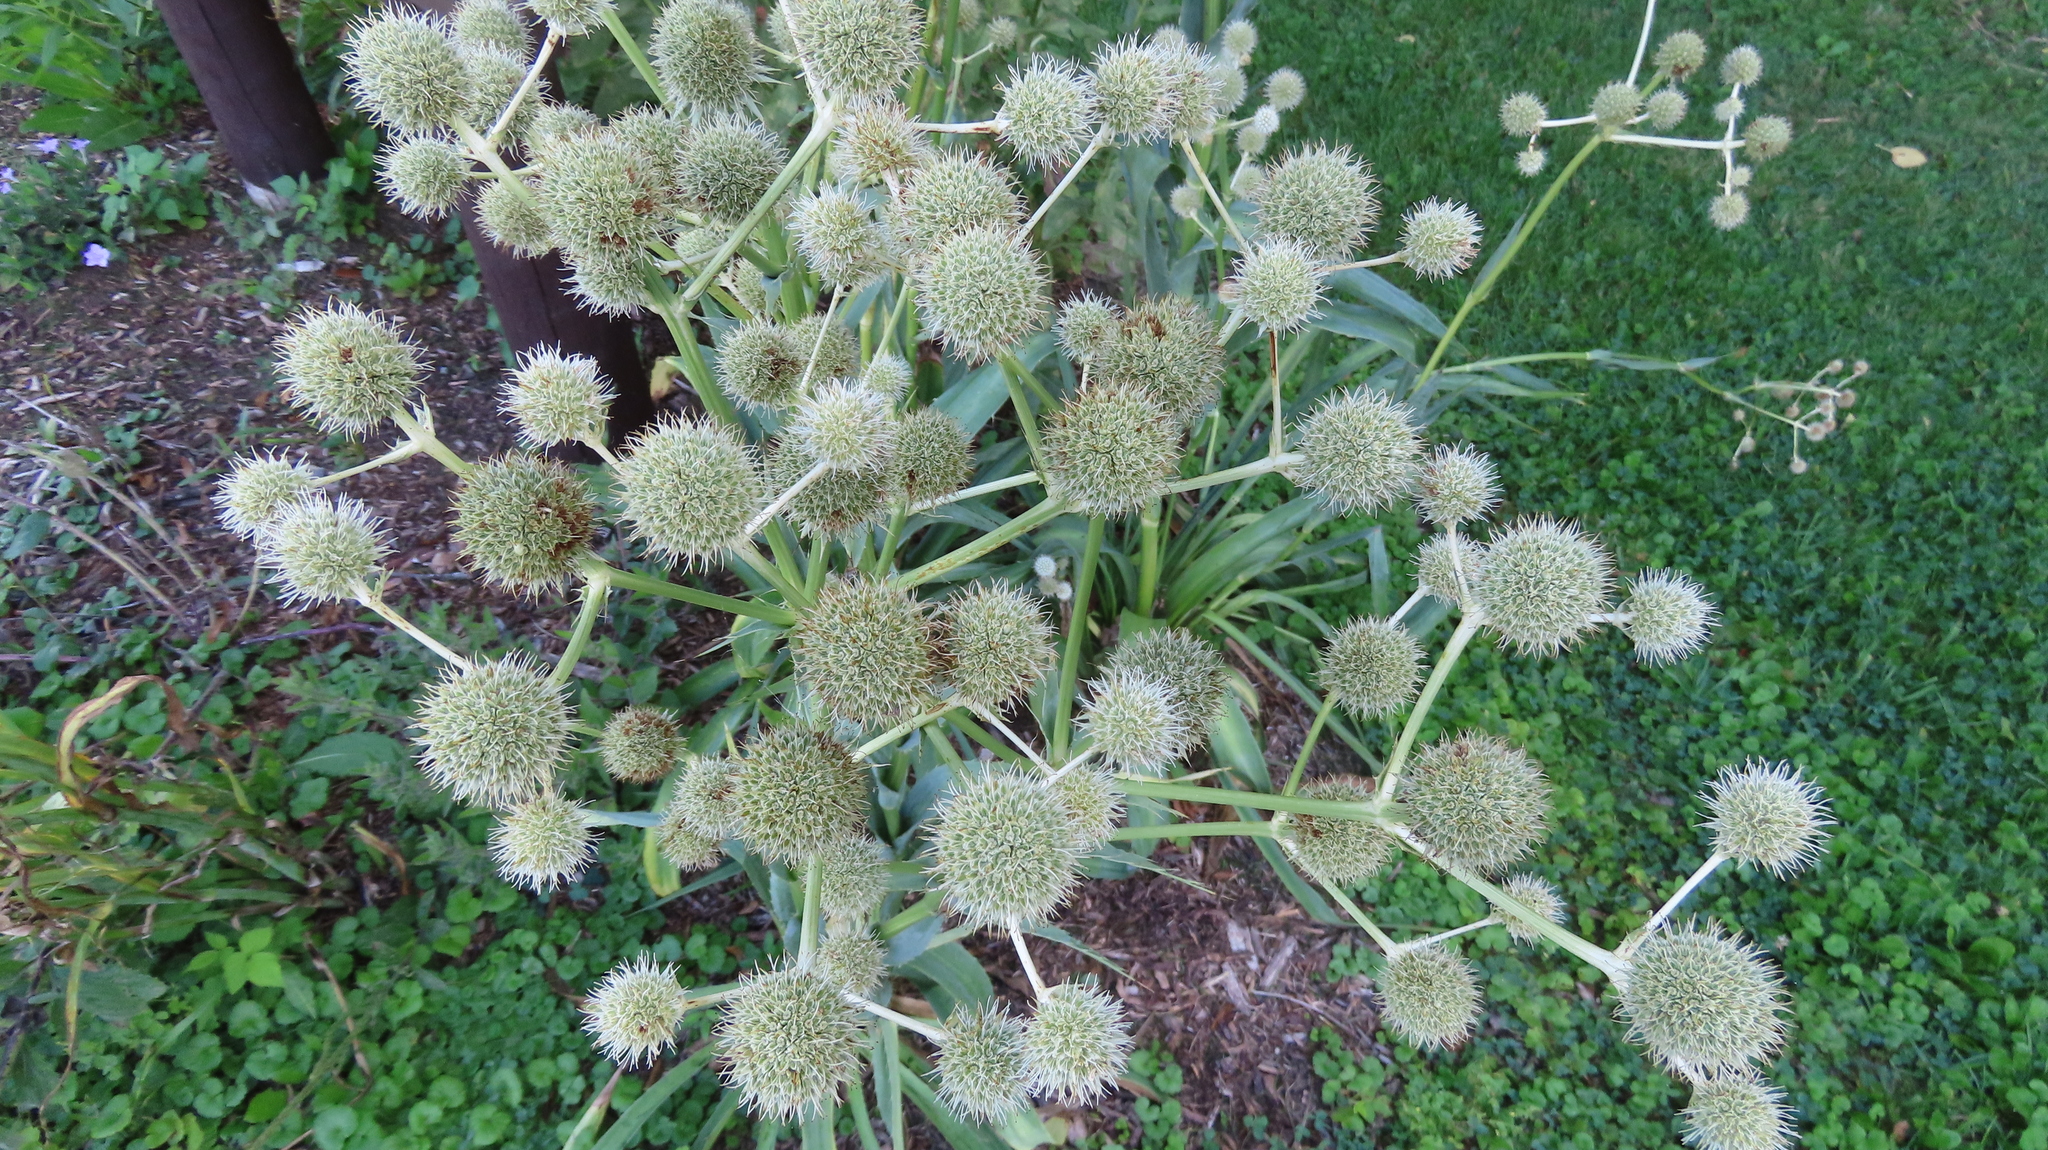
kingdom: Plantae
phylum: Tracheophyta
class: Magnoliopsida
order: Apiales
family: Apiaceae
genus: Eryngium
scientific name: Eryngium yuccifolium
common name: Button eryngo
